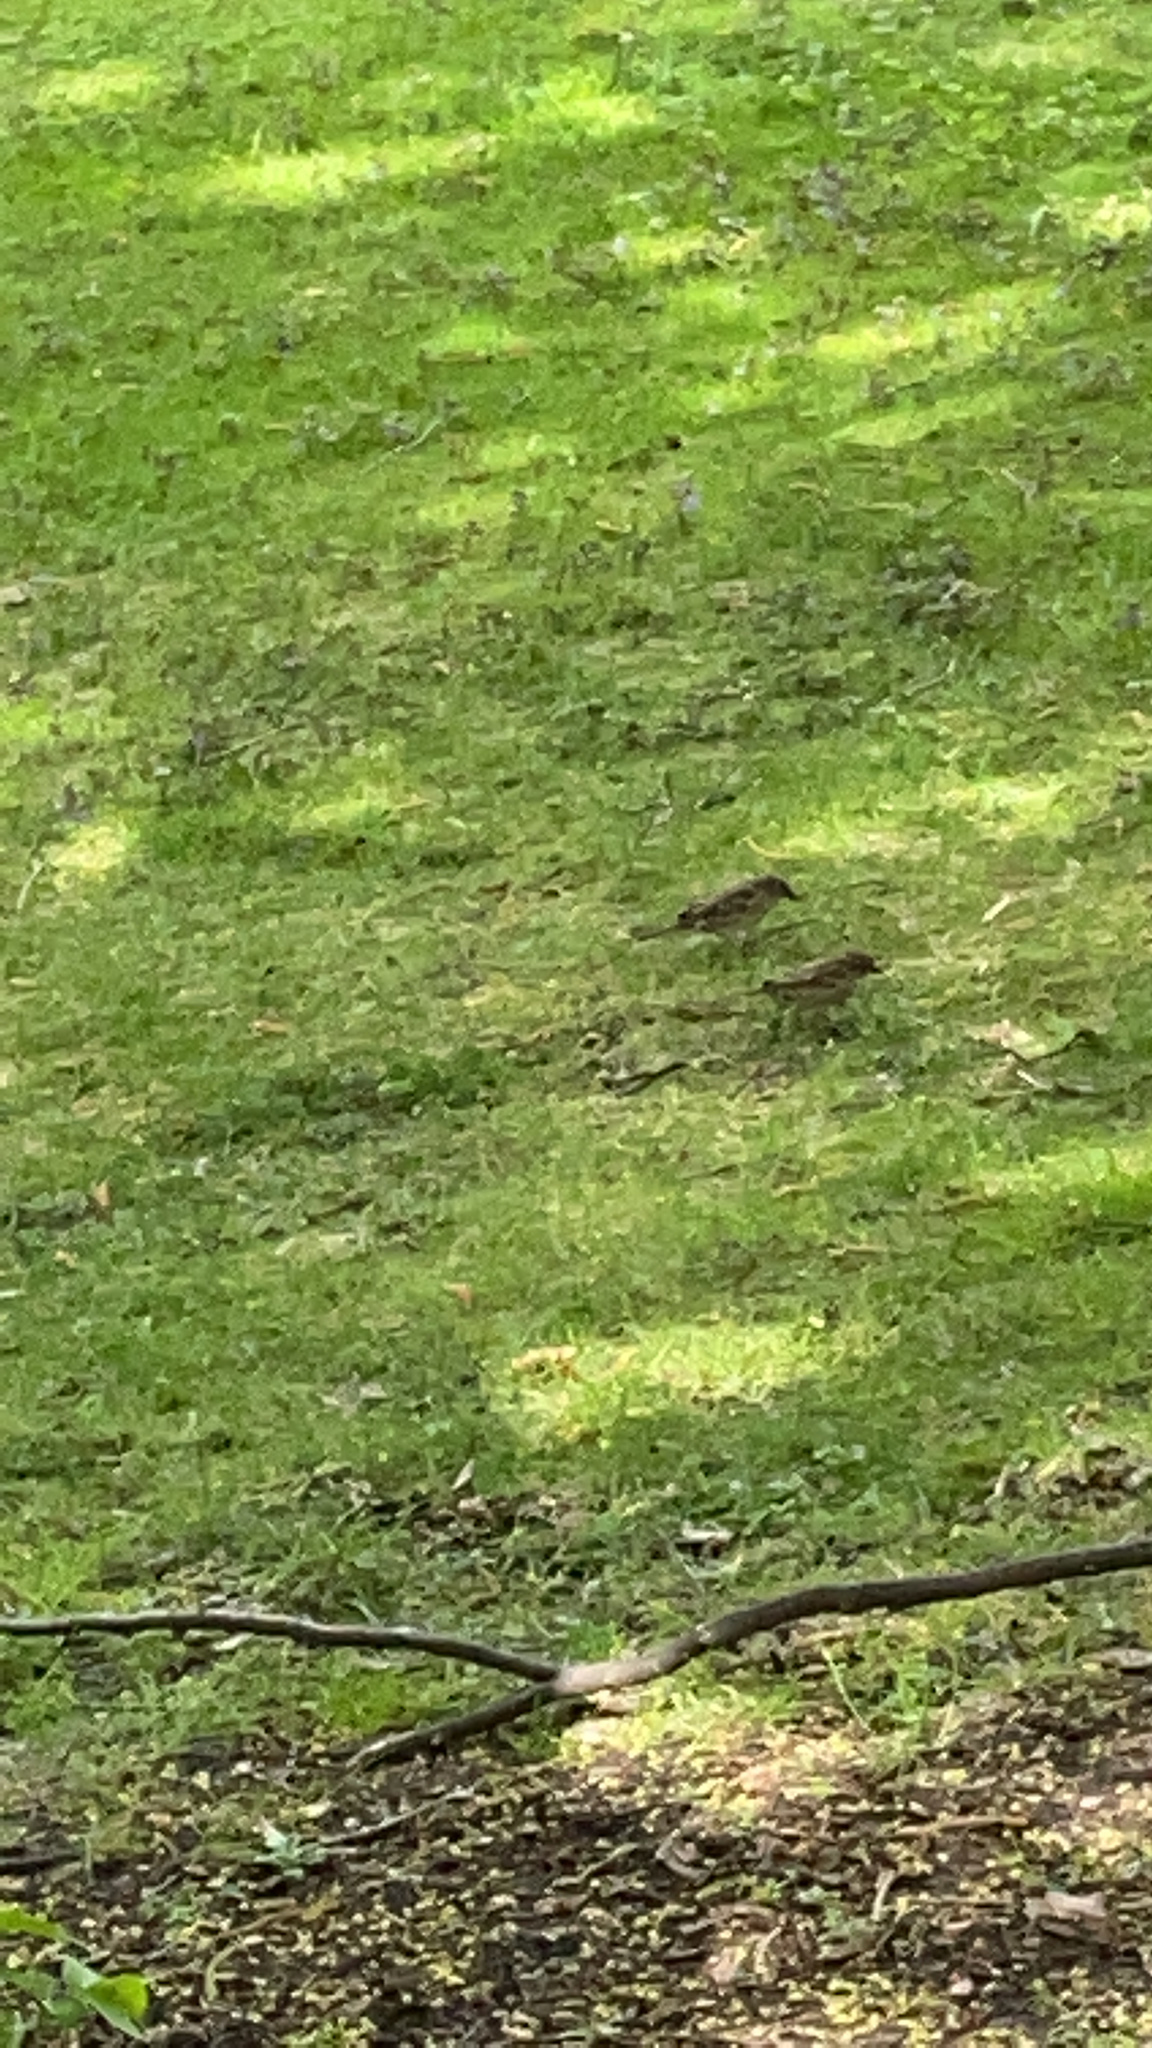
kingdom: Animalia
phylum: Chordata
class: Aves
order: Passeriformes
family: Passeridae
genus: Passer
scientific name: Passer domesticus
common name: House sparrow
